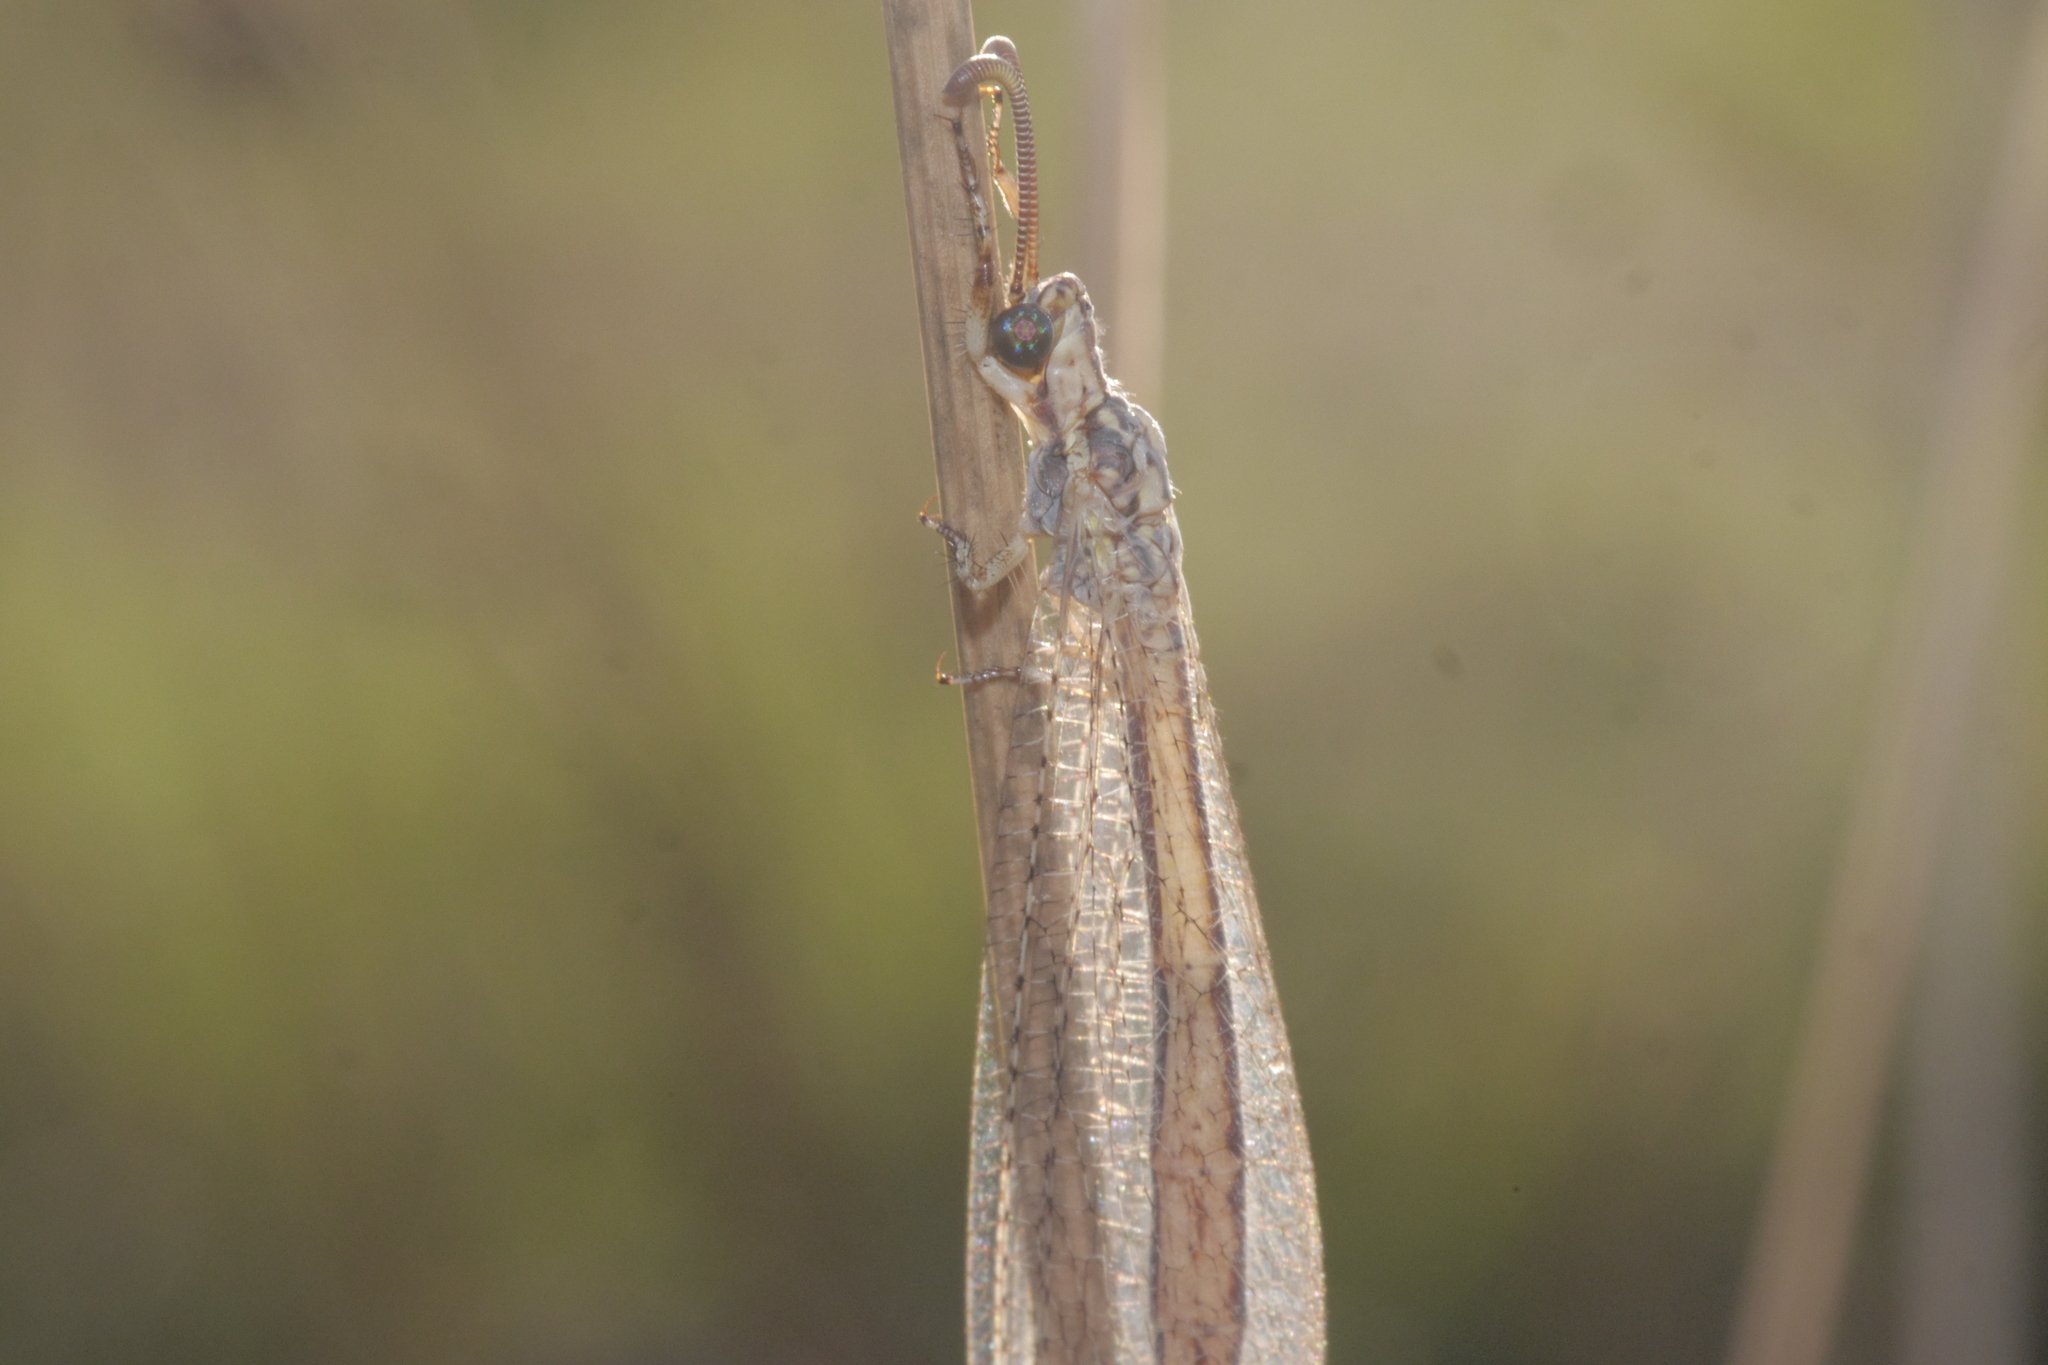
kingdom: Animalia
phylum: Arthropoda
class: Insecta
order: Neuroptera
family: Myrmeleontidae
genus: Macronemurus
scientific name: Macronemurus appendiculatus
